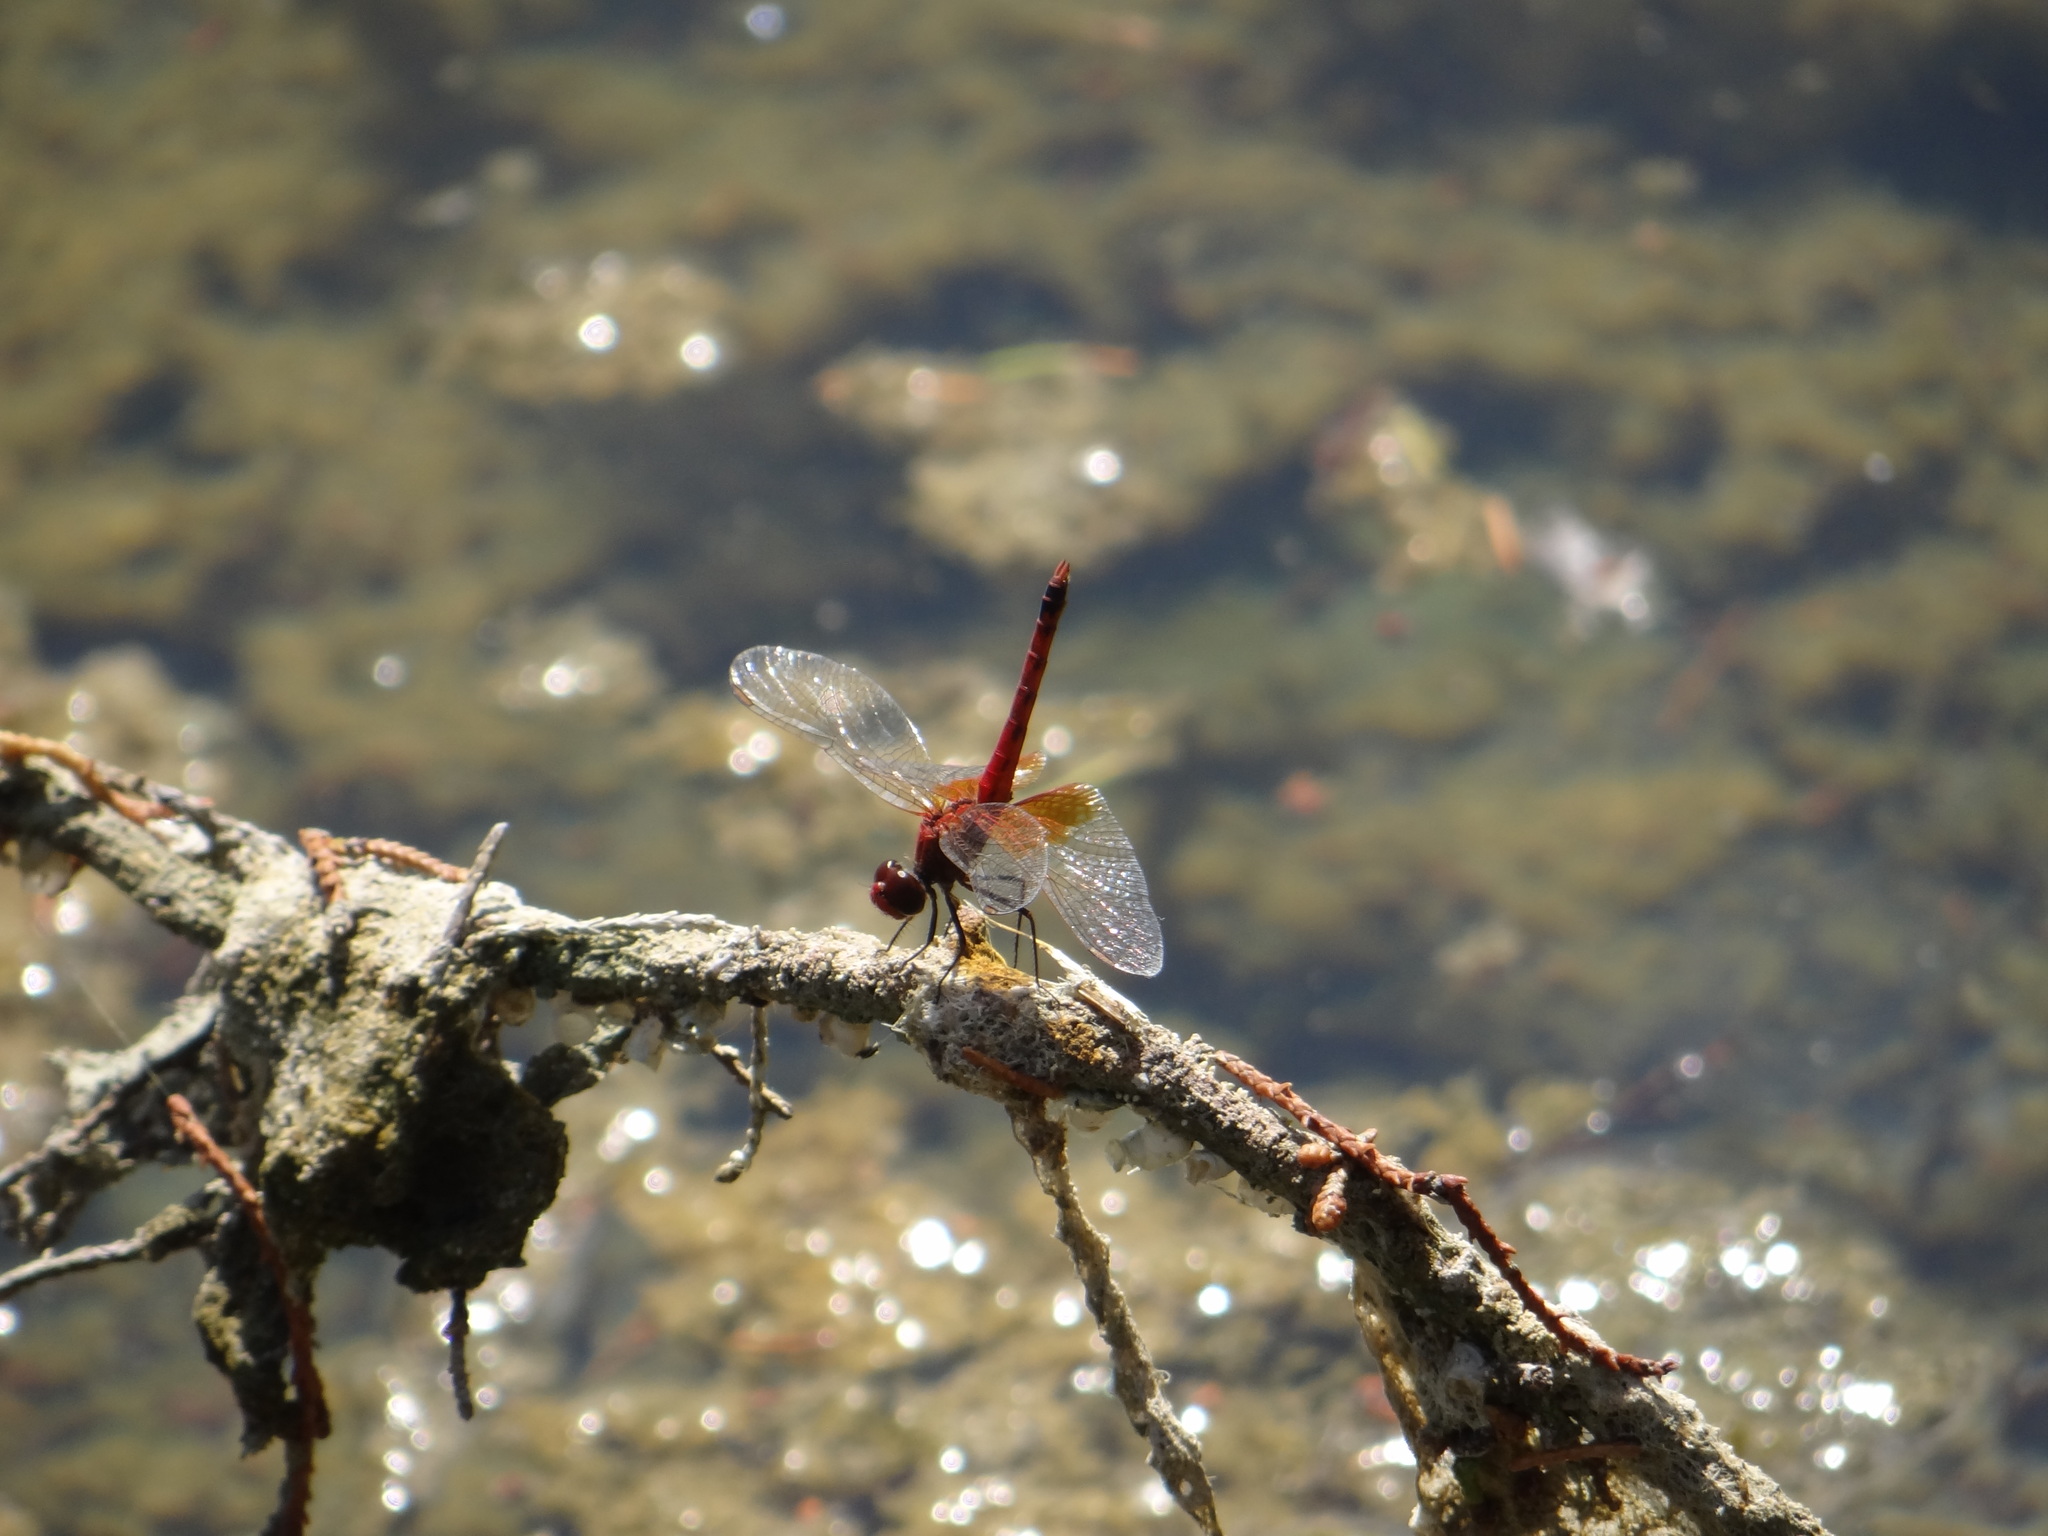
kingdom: Animalia
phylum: Arthropoda
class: Insecta
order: Odonata
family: Libellulidae
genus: Erythrodiplax
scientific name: Erythrodiplax corallina
